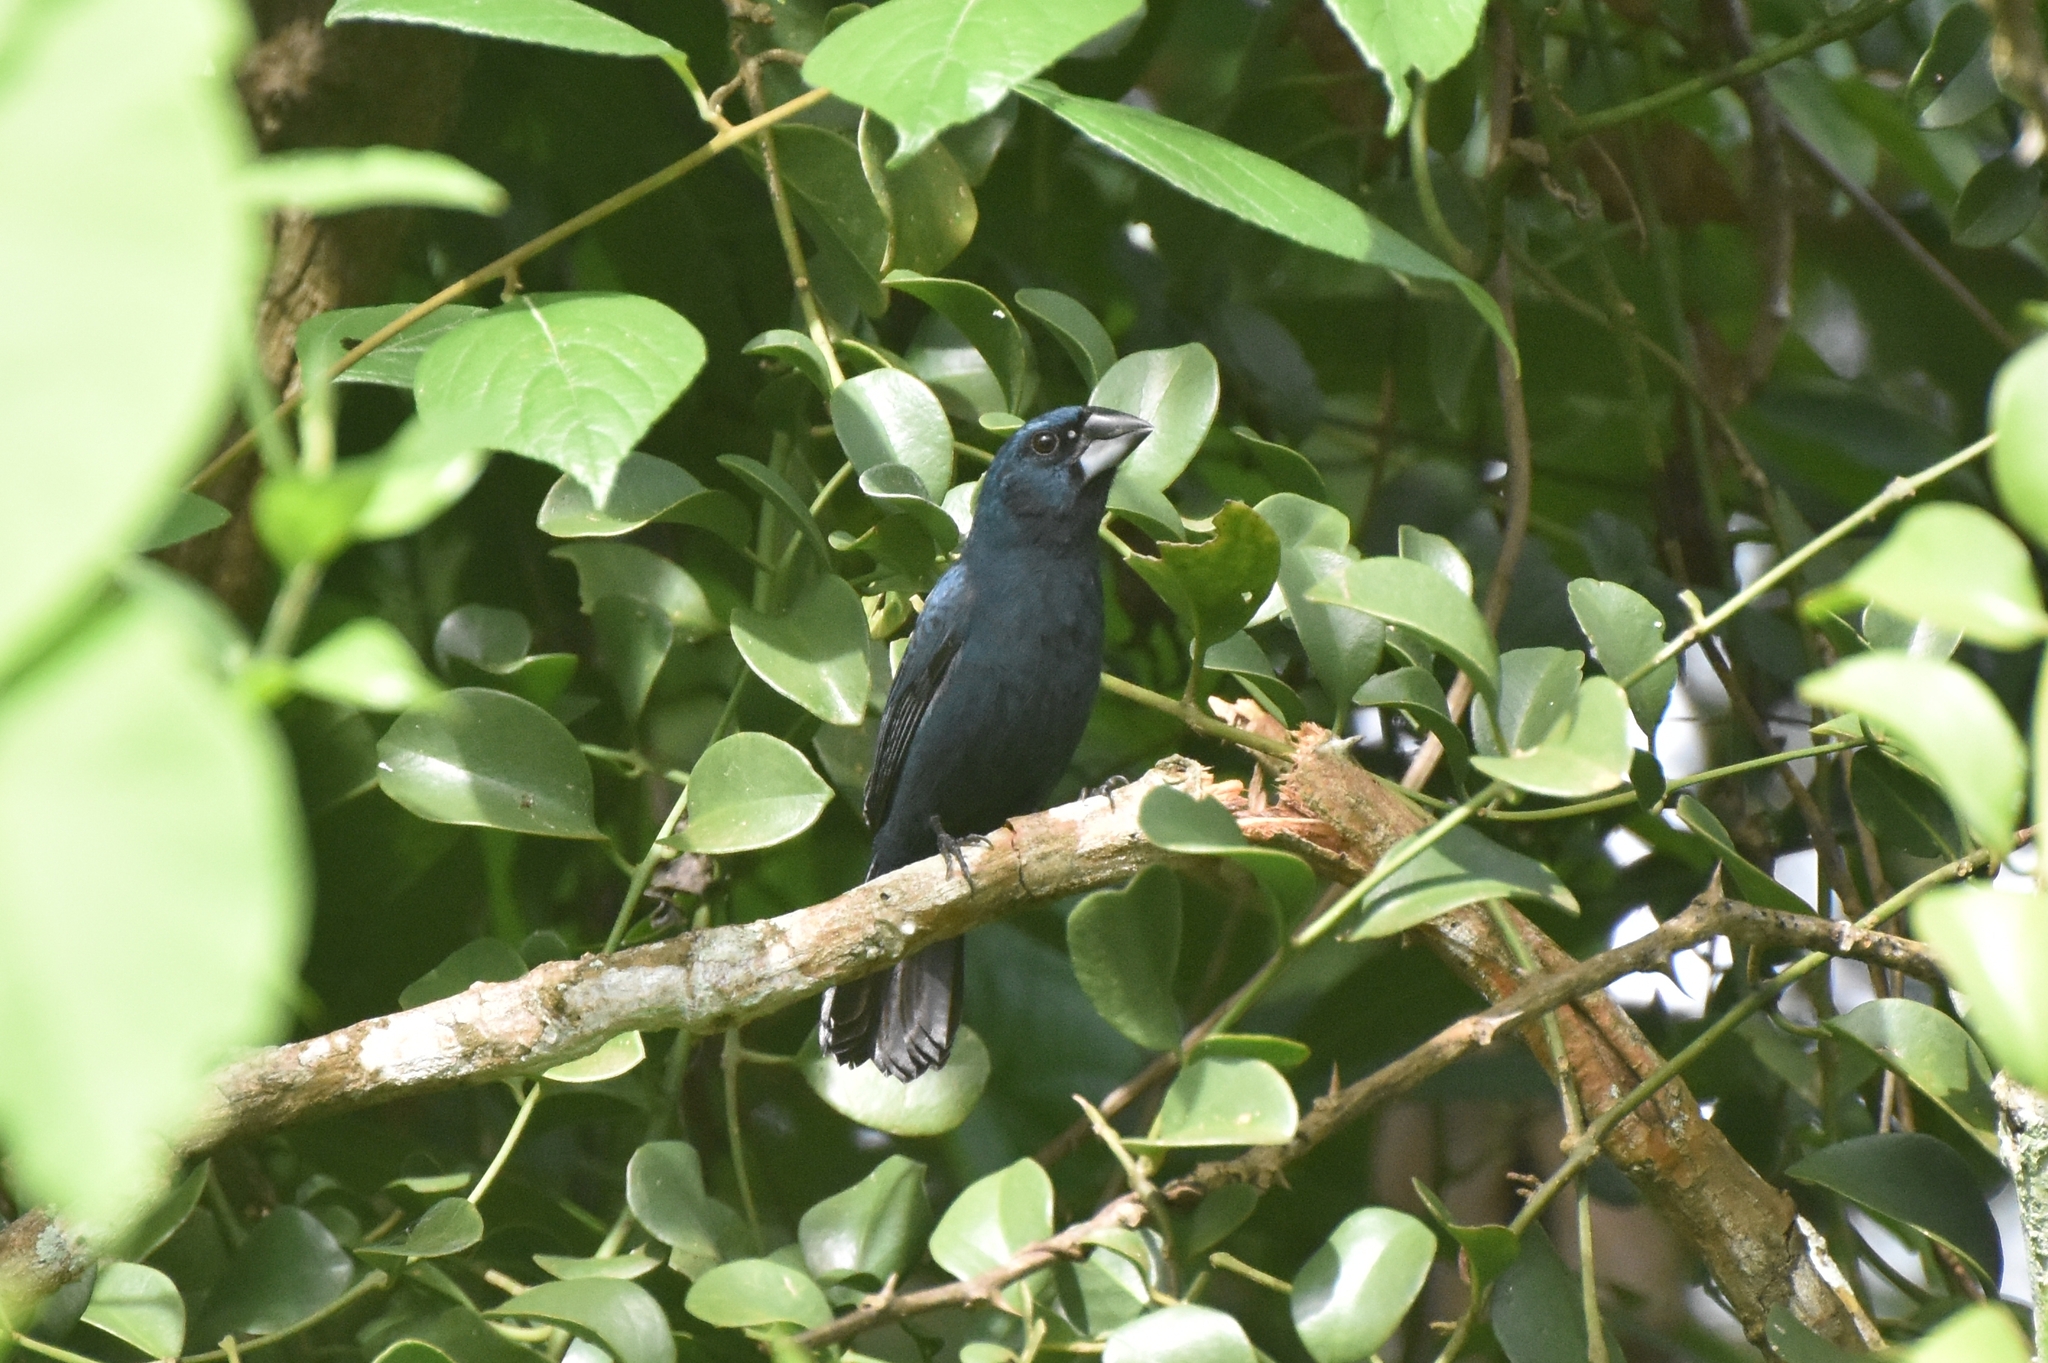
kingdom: Animalia
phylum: Chordata
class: Aves
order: Passeriformes
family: Cardinalidae
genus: Cyanocompsa
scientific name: Cyanocompsa cyanoides
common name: Blue-black grosbeak
